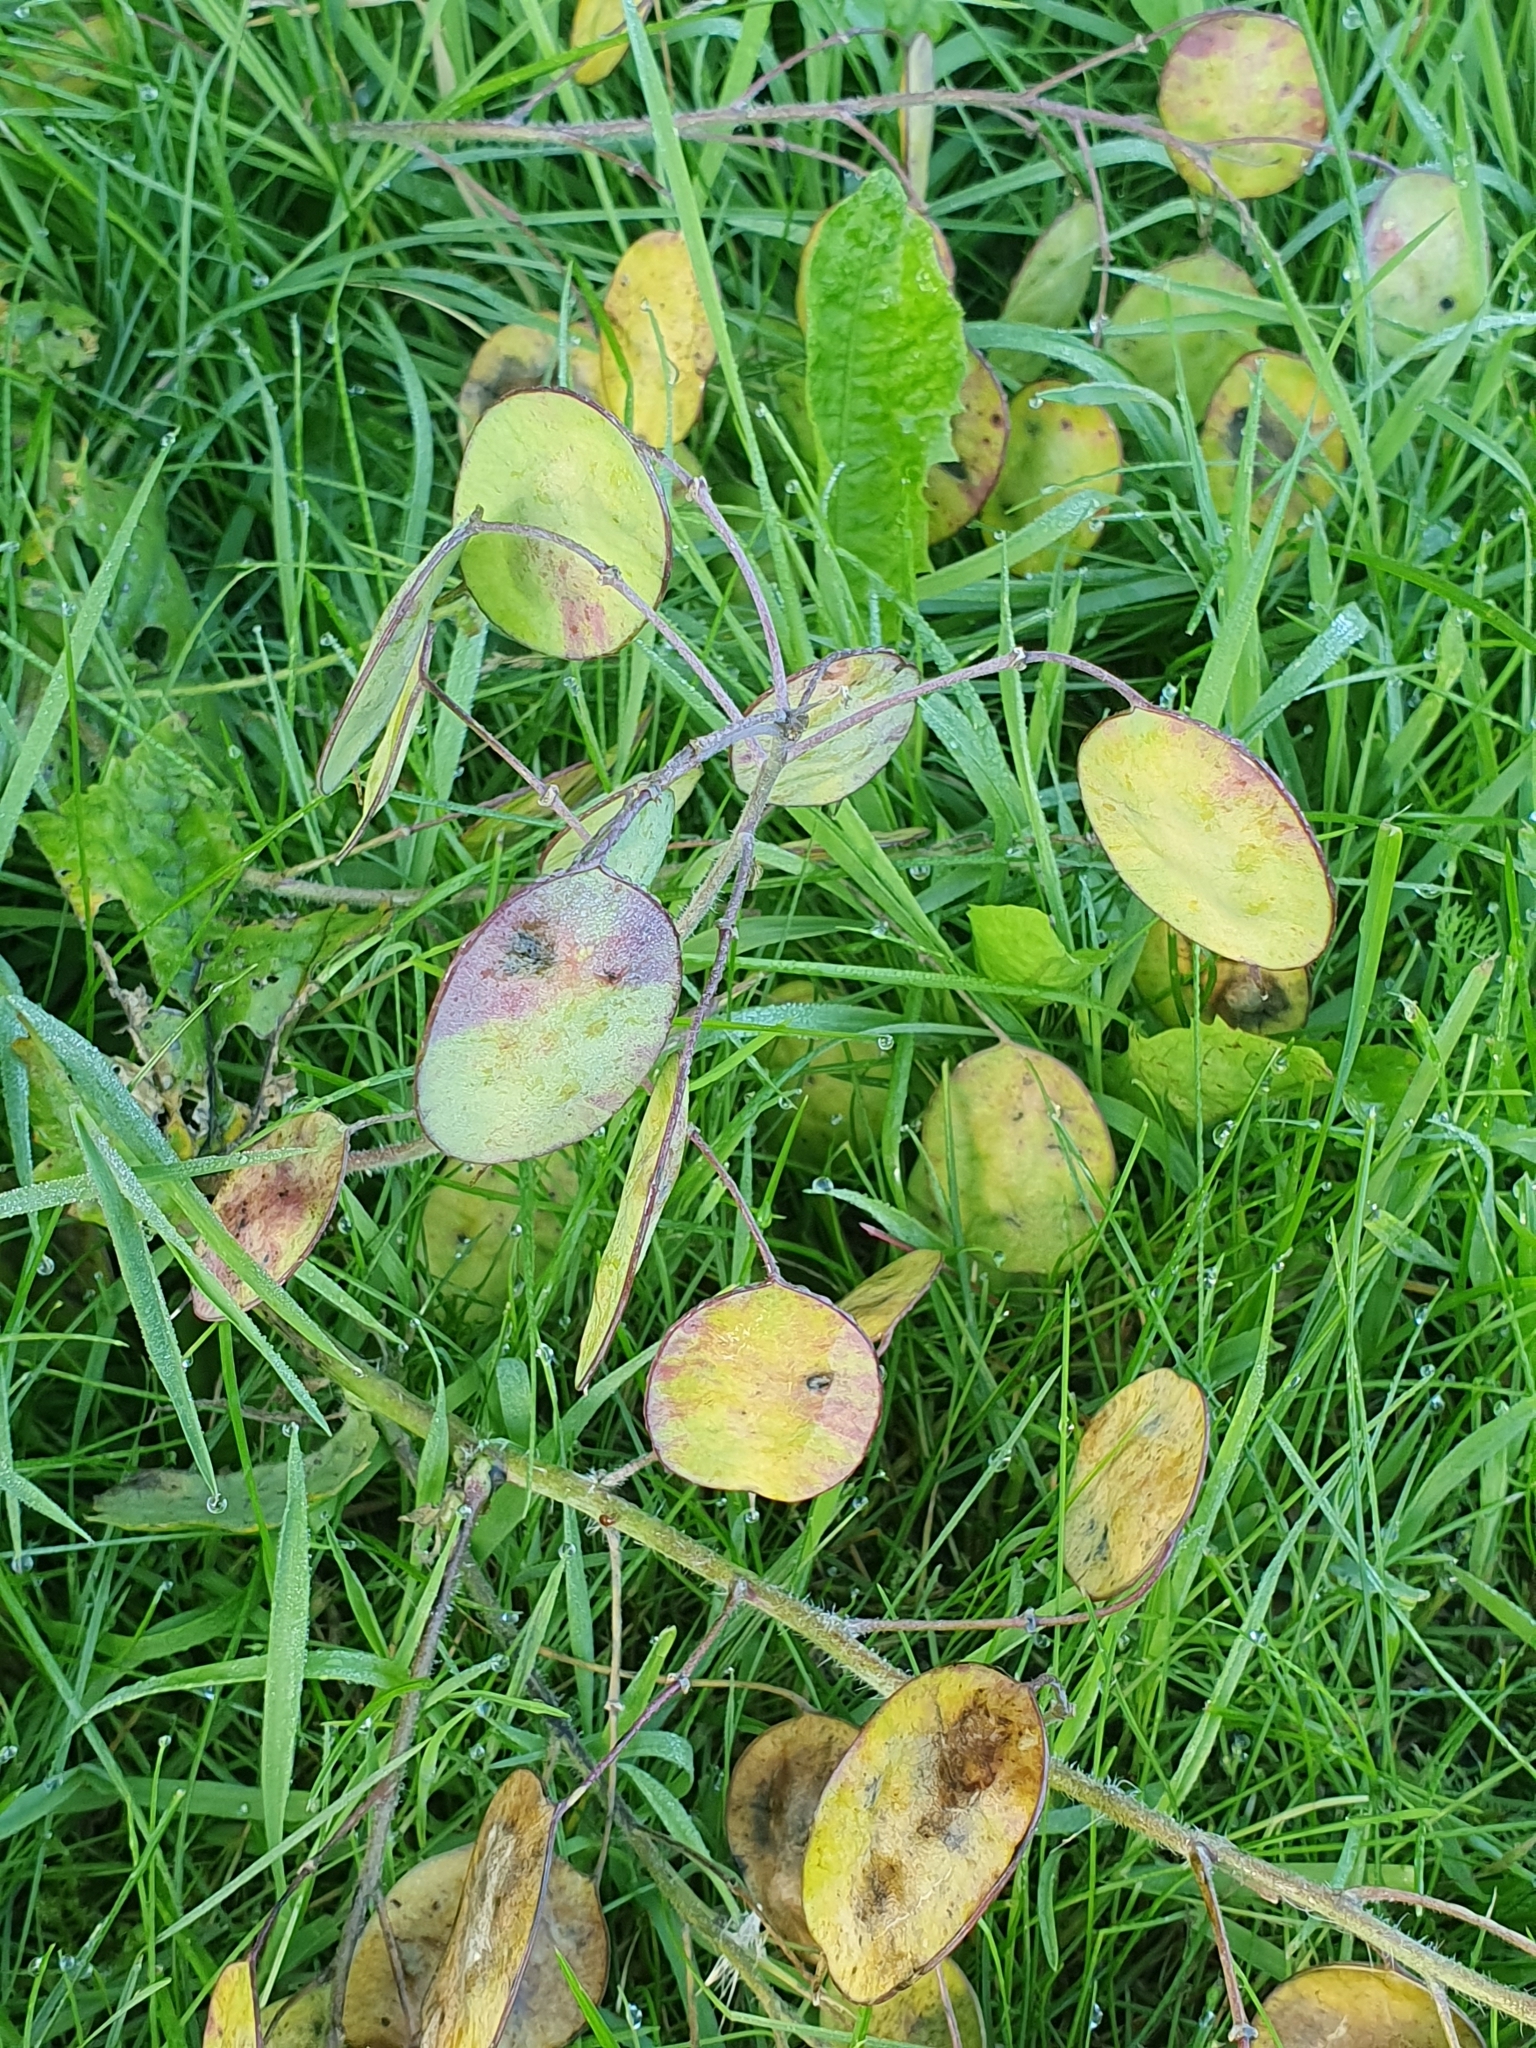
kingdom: Plantae
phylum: Tracheophyta
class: Magnoliopsida
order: Brassicales
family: Brassicaceae
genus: Lunaria
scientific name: Lunaria annua
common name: Honesty
